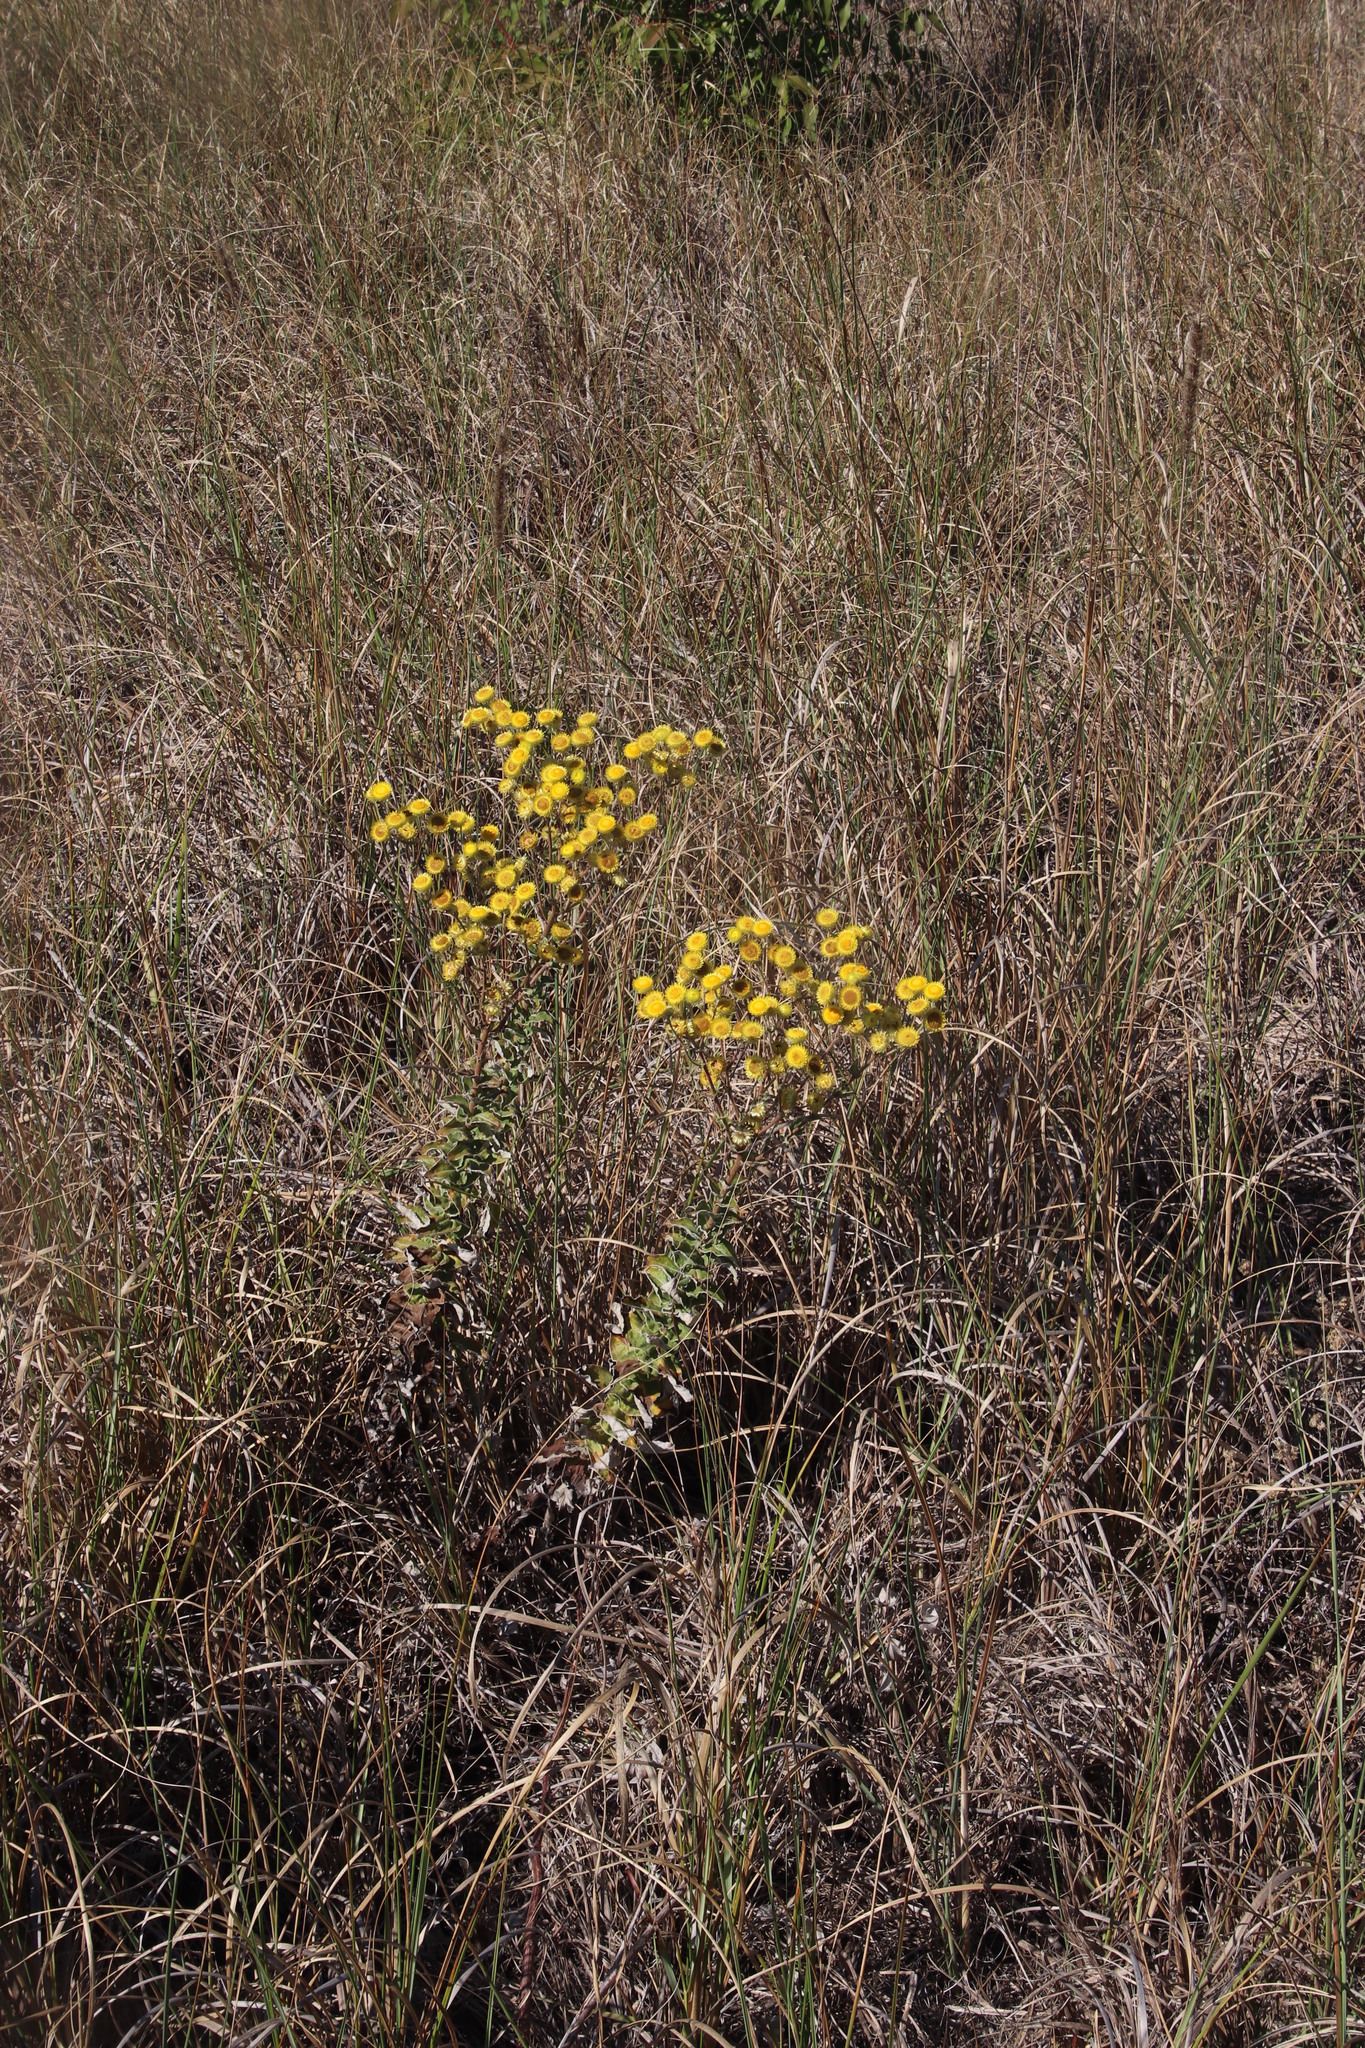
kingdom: Plantae
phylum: Tracheophyta
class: Magnoliopsida
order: Asterales
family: Asteraceae
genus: Helichrysum
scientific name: Helichrysum foetidum
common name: Stinking everlasting
